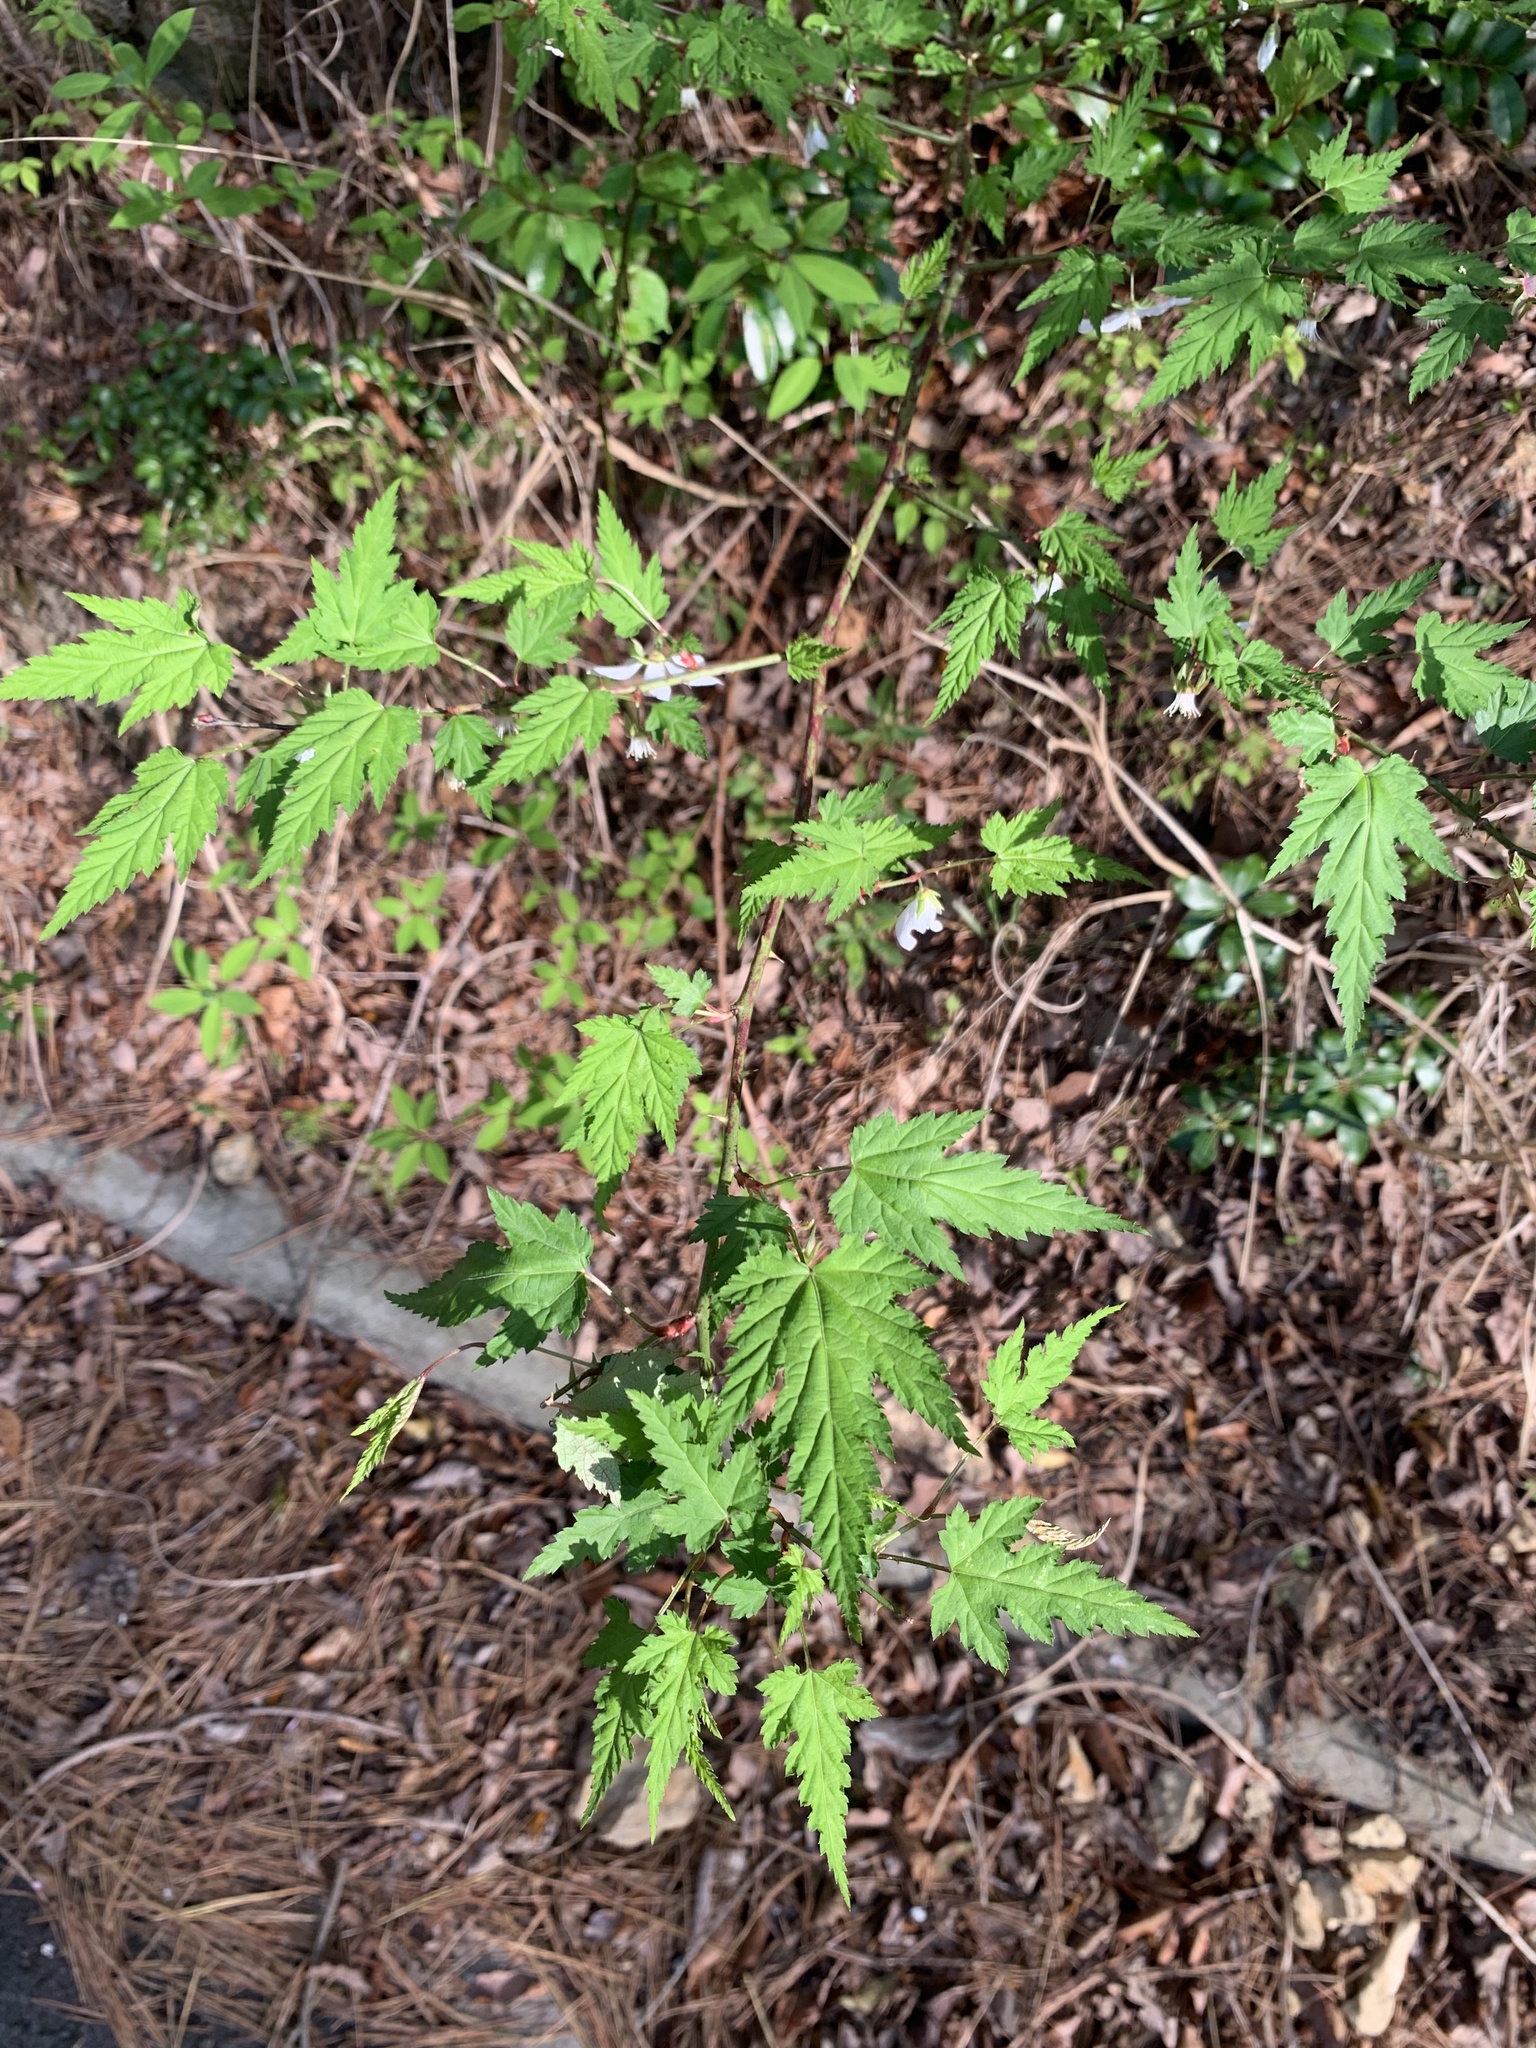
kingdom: Plantae
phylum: Tracheophyta
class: Magnoliopsida
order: Rosales
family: Rosaceae
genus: Rubus
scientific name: Rubus palmatus
